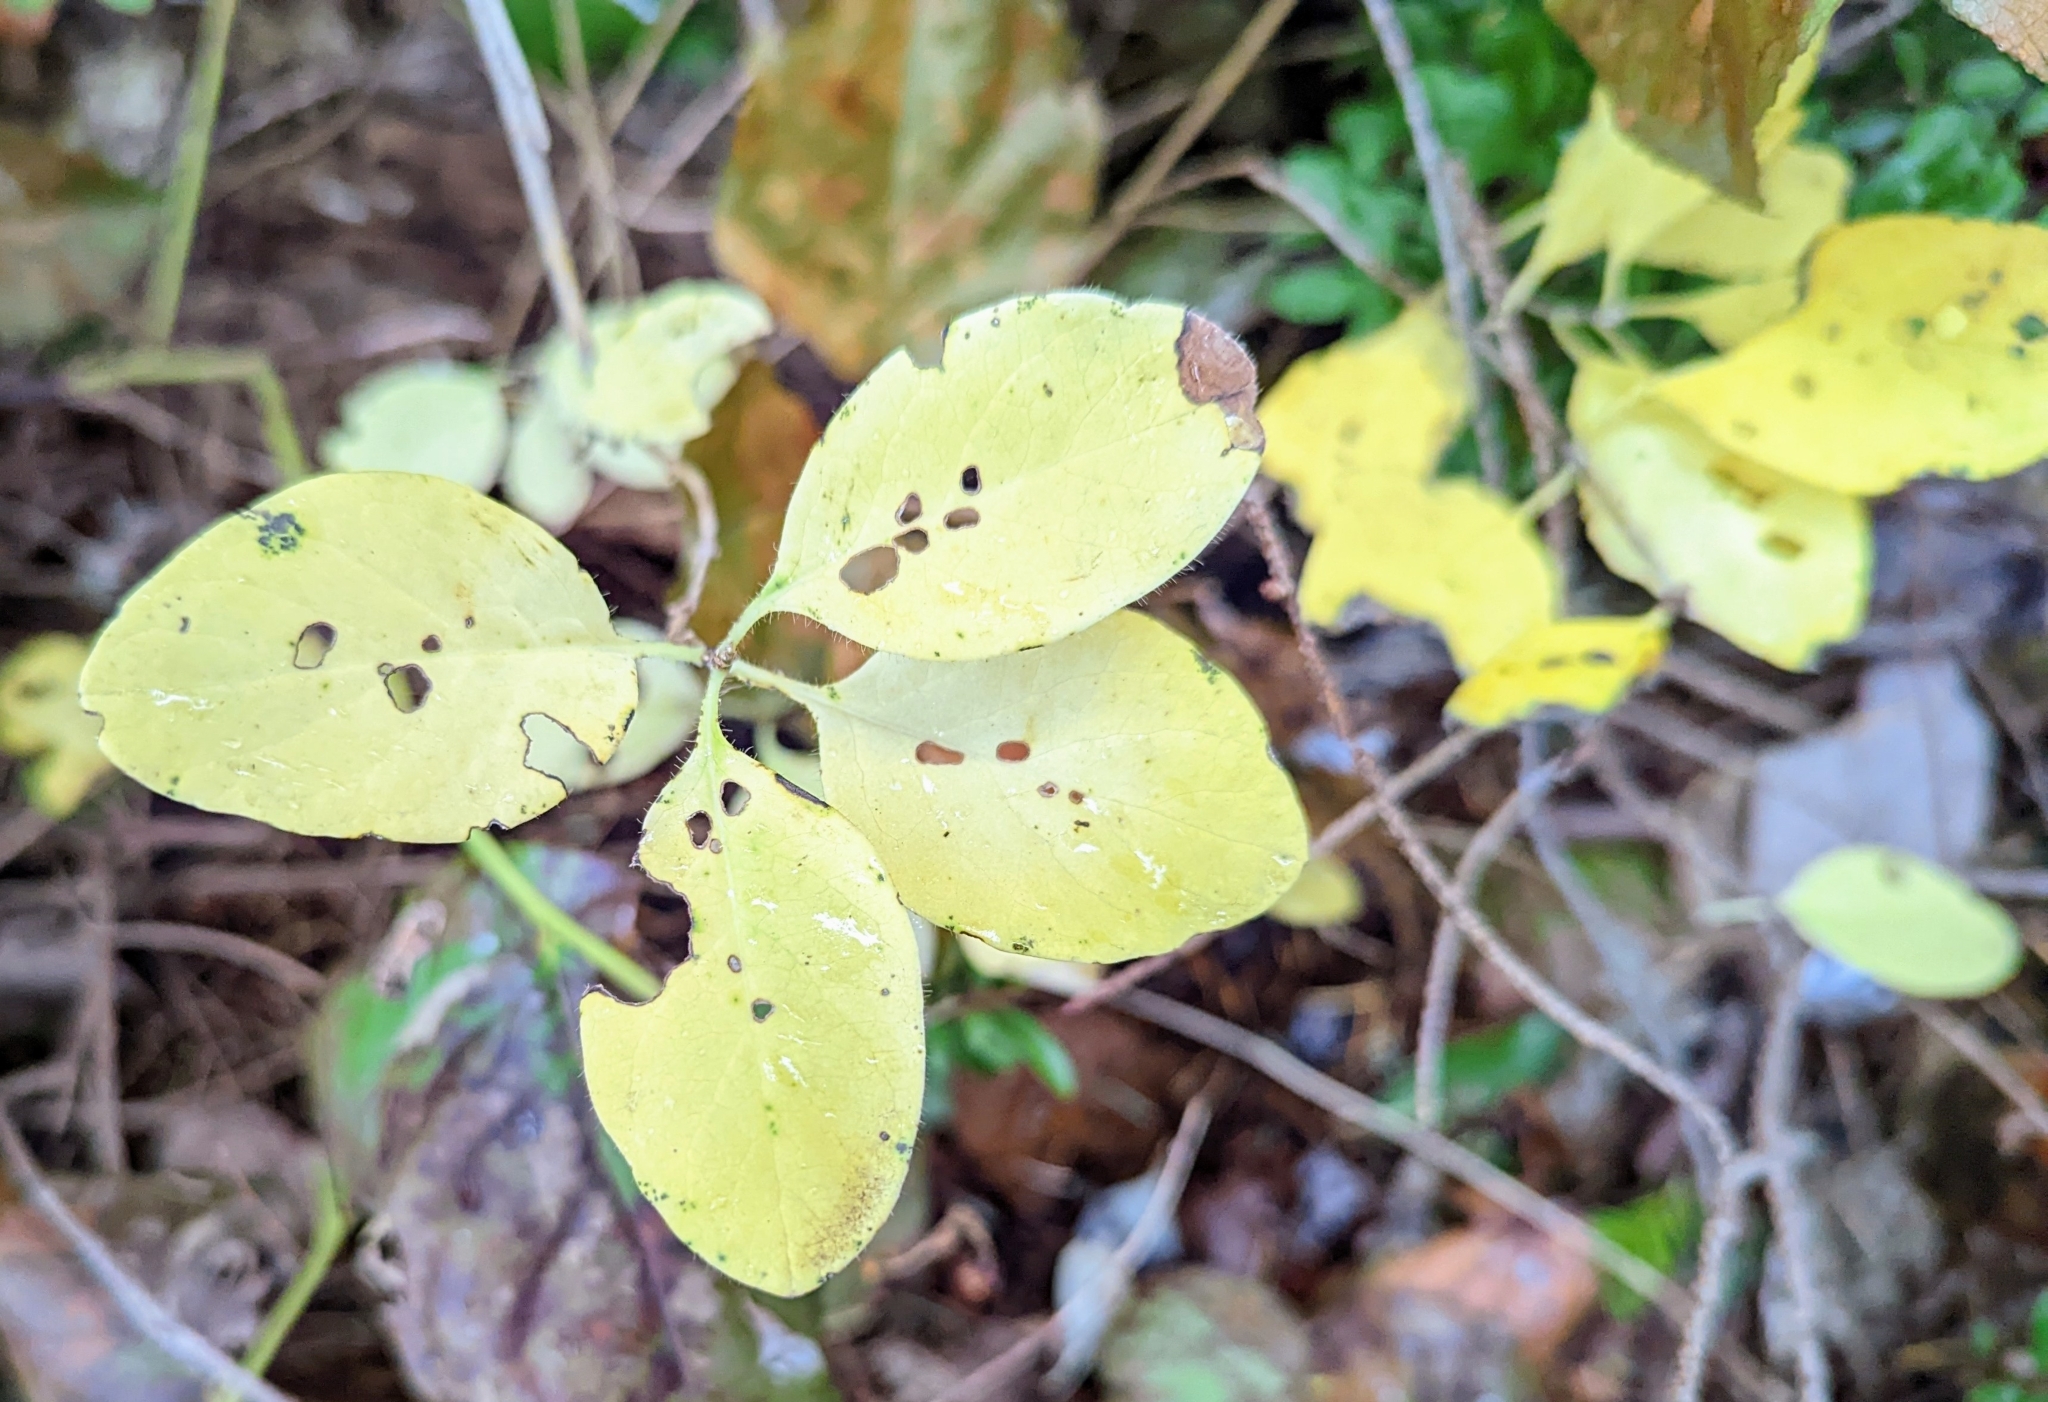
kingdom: Plantae
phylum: Tracheophyta
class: Magnoliopsida
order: Dipsacales
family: Caprifoliaceae
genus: Lonicera
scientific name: Lonicera ciliosa
